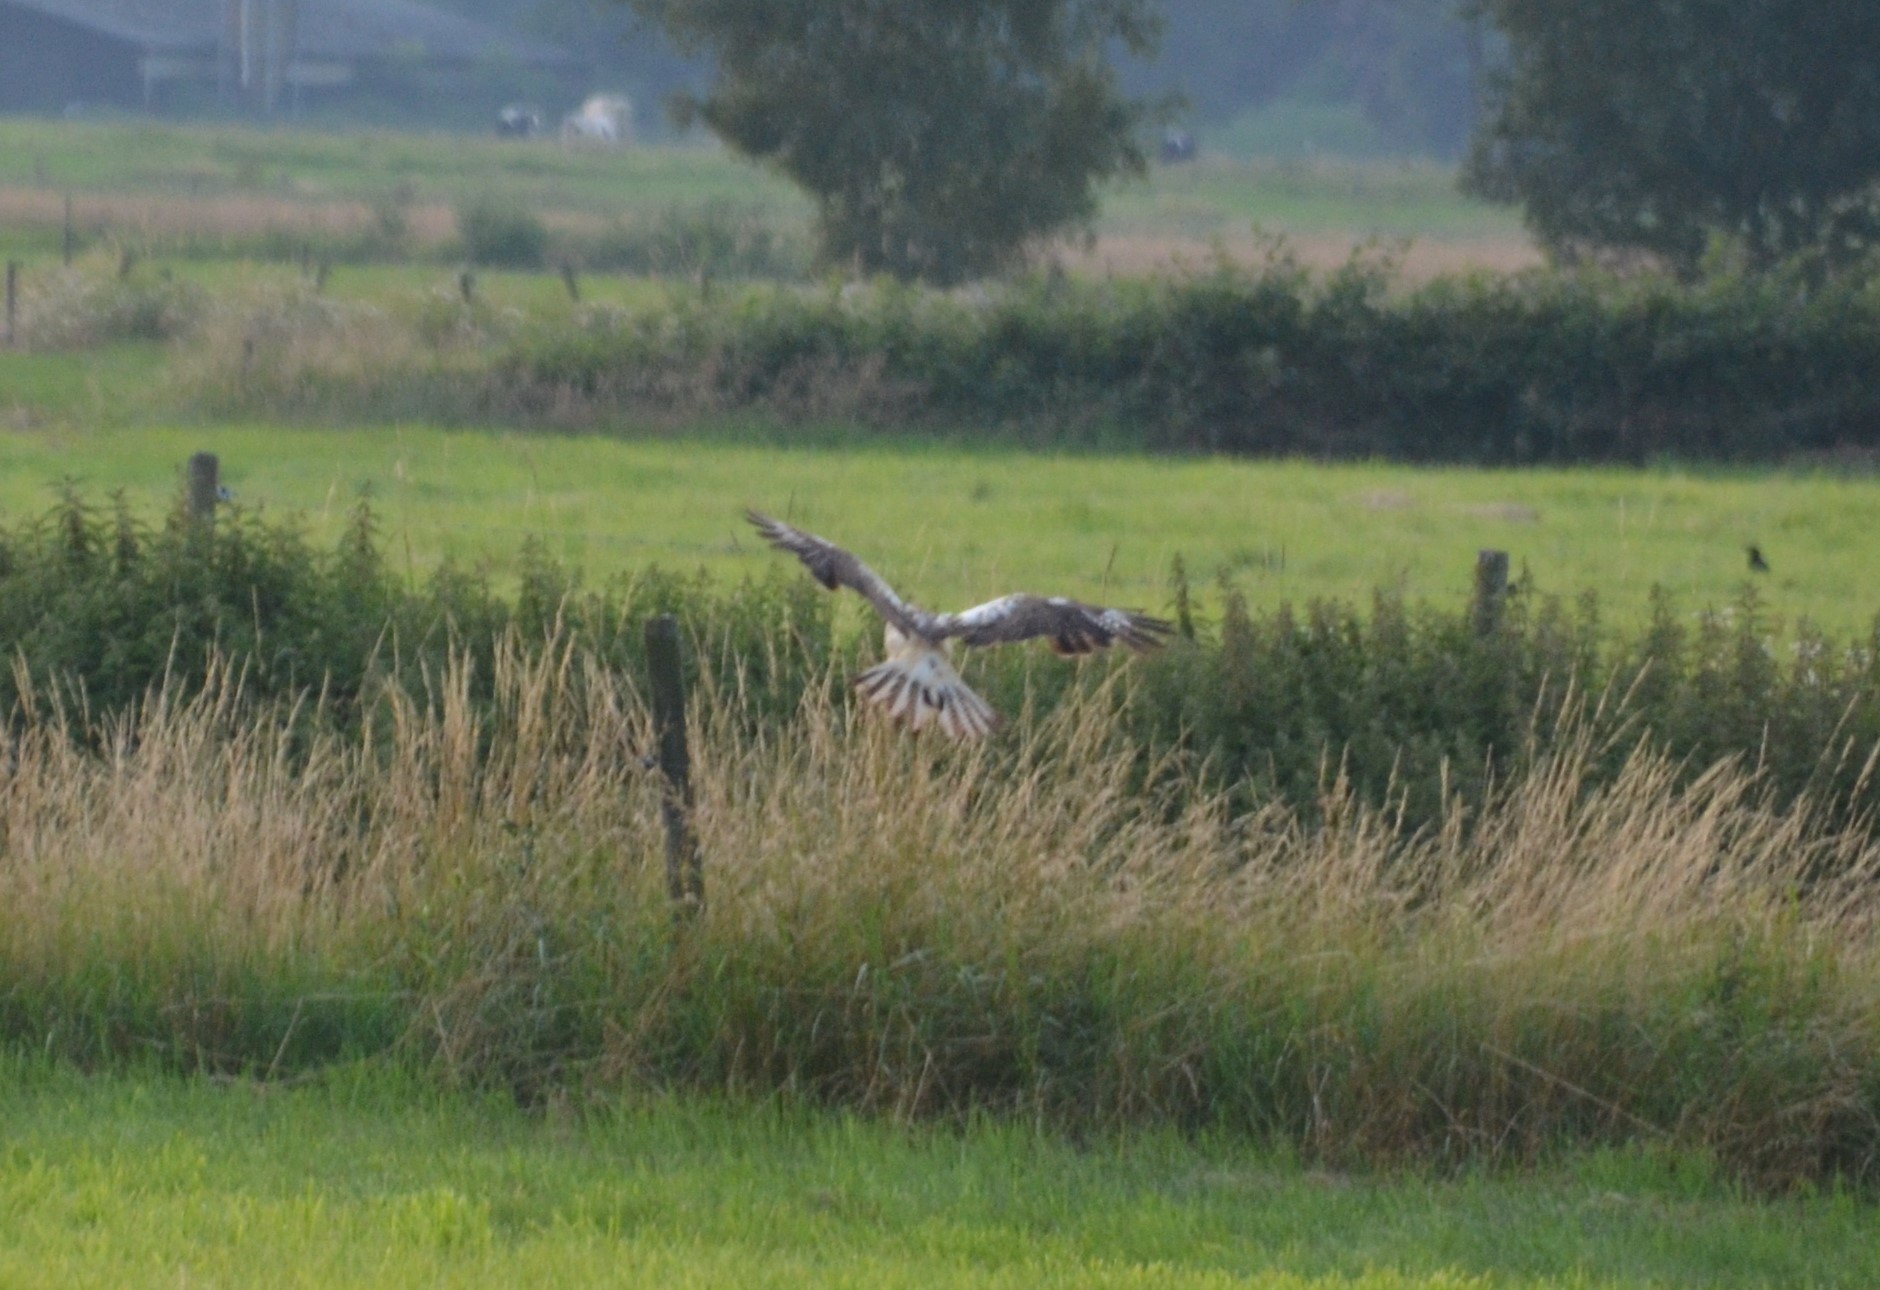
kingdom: Animalia
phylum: Chordata
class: Aves
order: Accipitriformes
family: Accipitridae
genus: Buteo
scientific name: Buteo buteo
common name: Common buzzard
